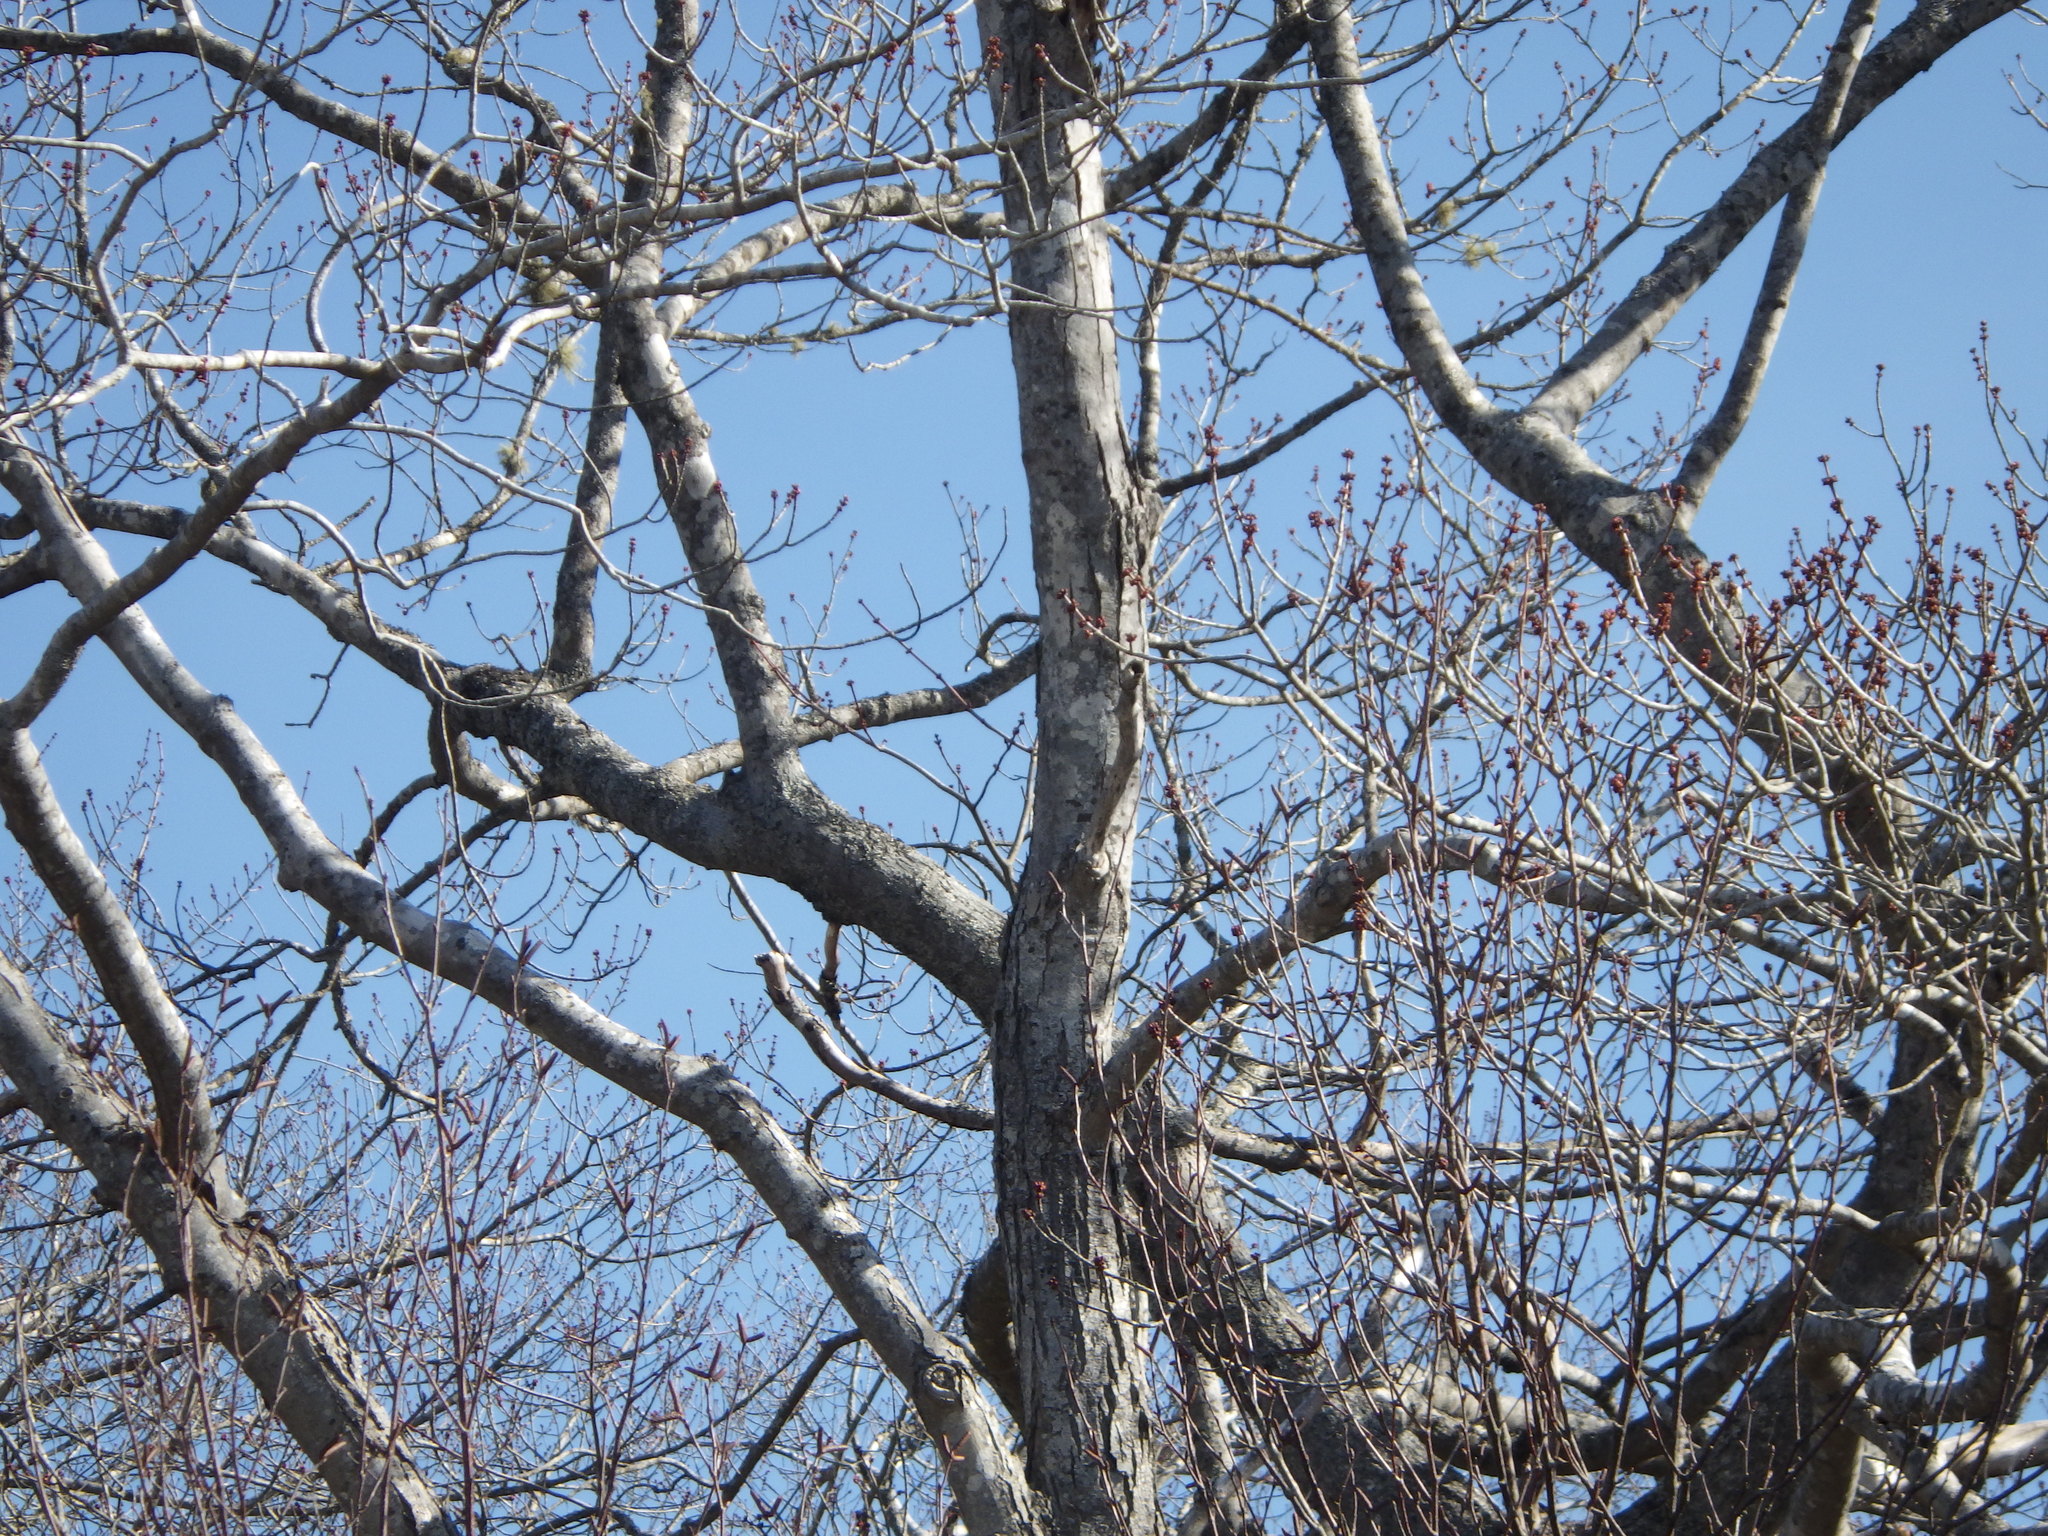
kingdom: Plantae
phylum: Tracheophyta
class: Magnoliopsida
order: Sapindales
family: Sapindaceae
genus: Acer
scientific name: Acer rubrum
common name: Red maple
